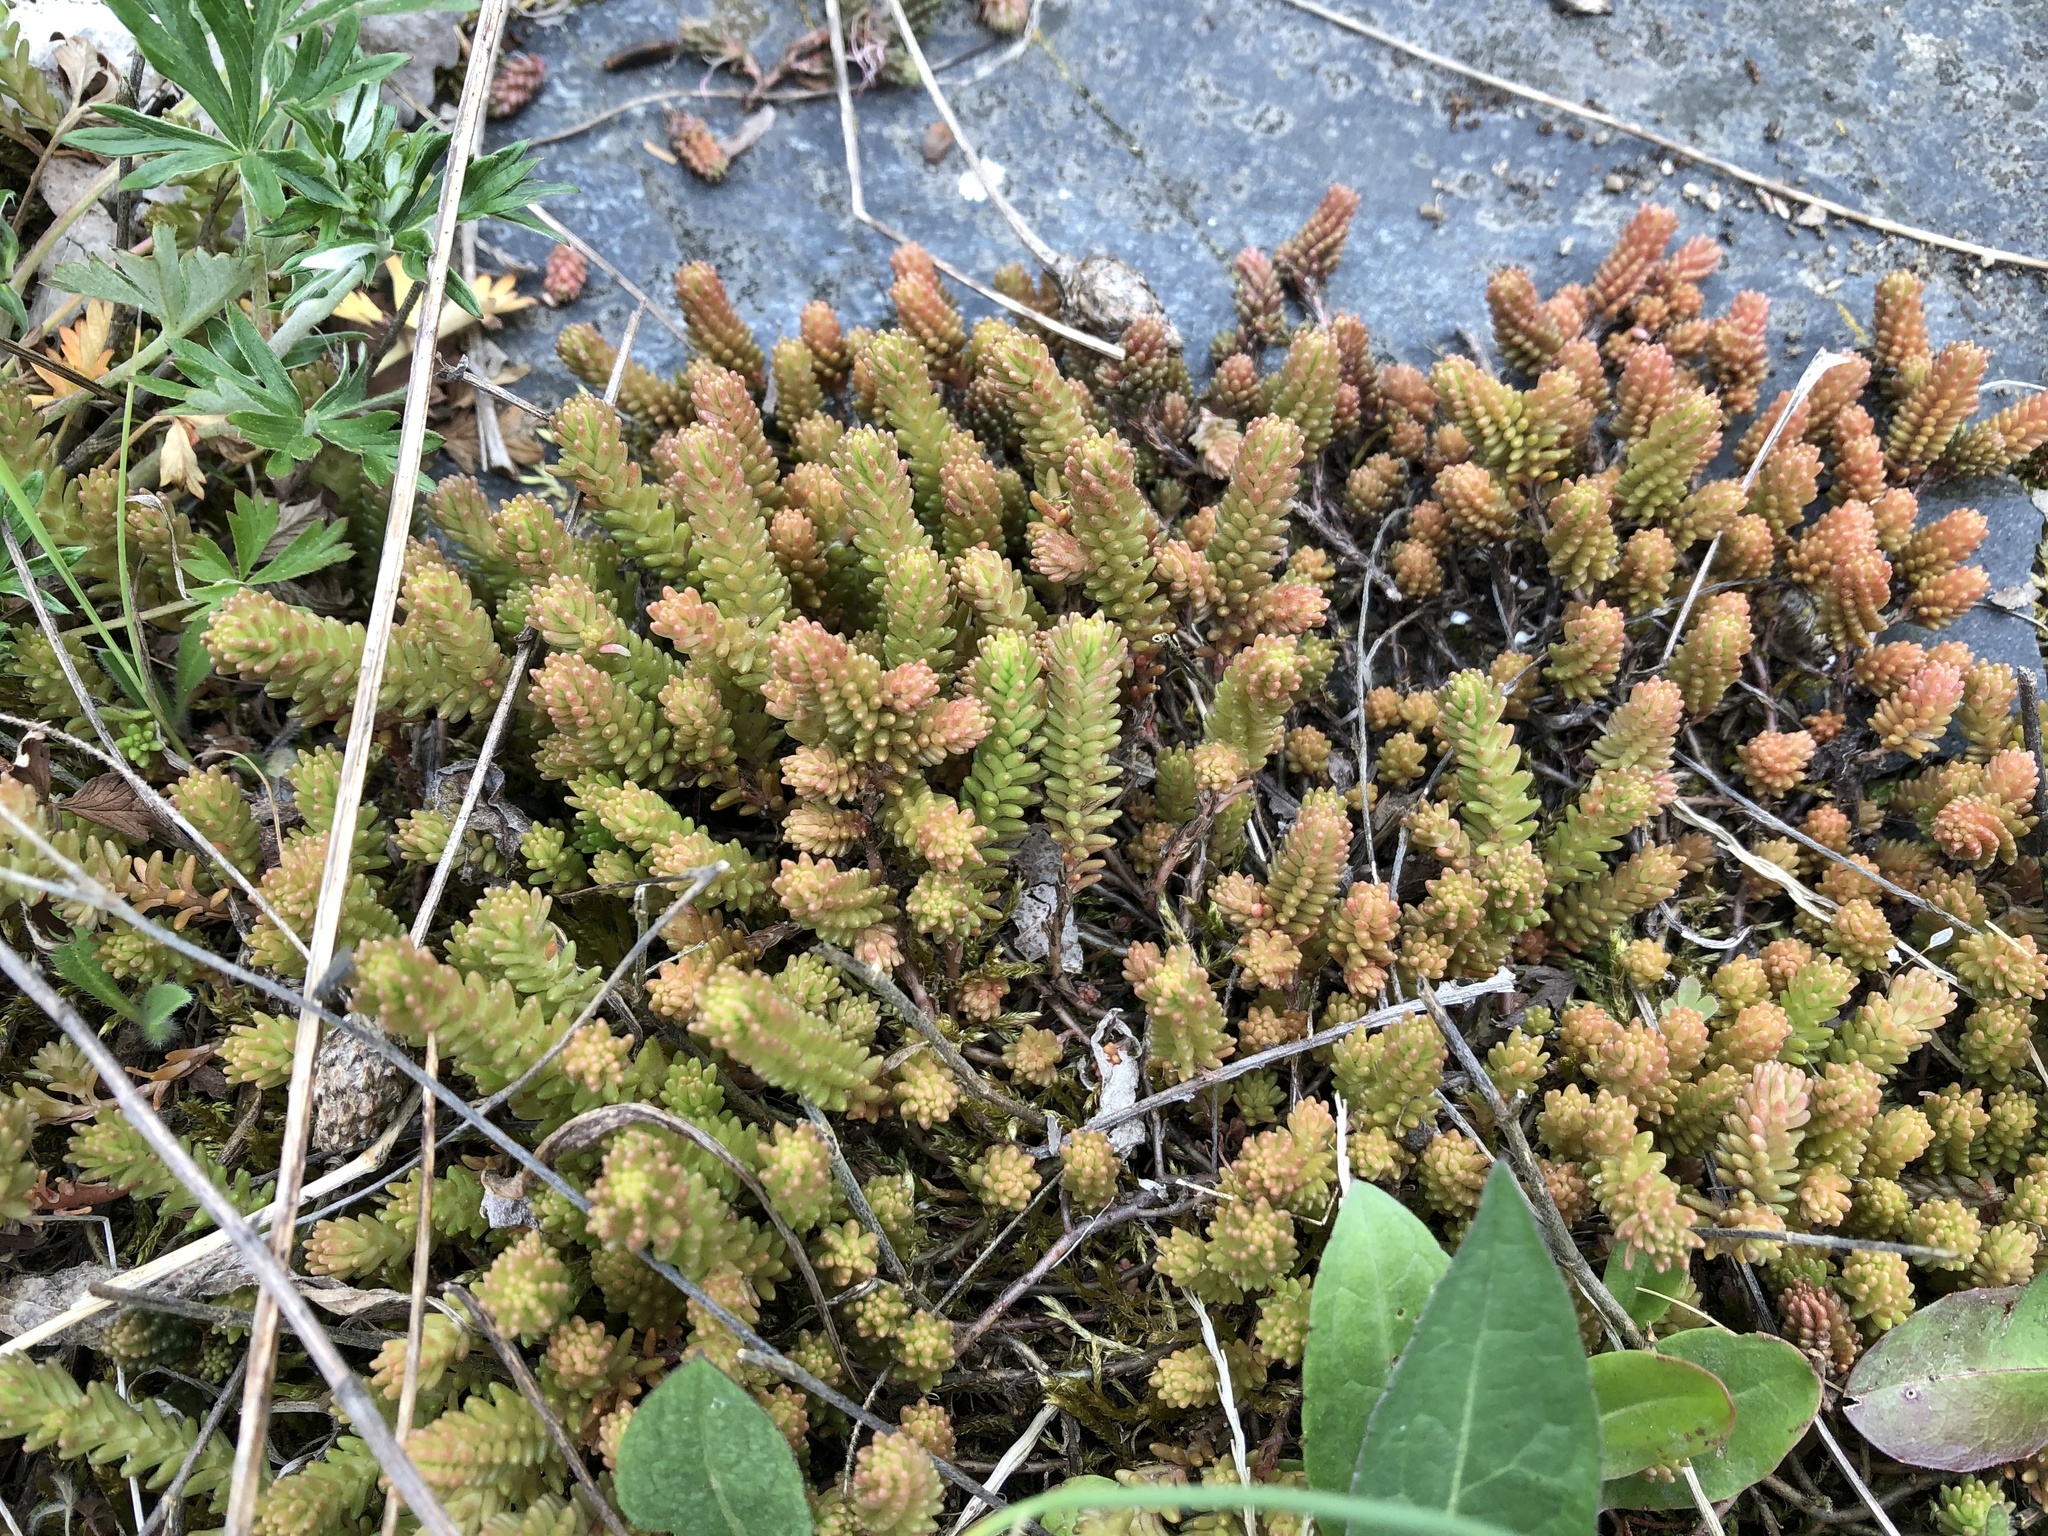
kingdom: Plantae
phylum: Tracheophyta
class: Magnoliopsida
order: Saxifragales
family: Crassulaceae
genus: Sedum
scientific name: Sedum sexangulare
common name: Tasteless stonecrop
